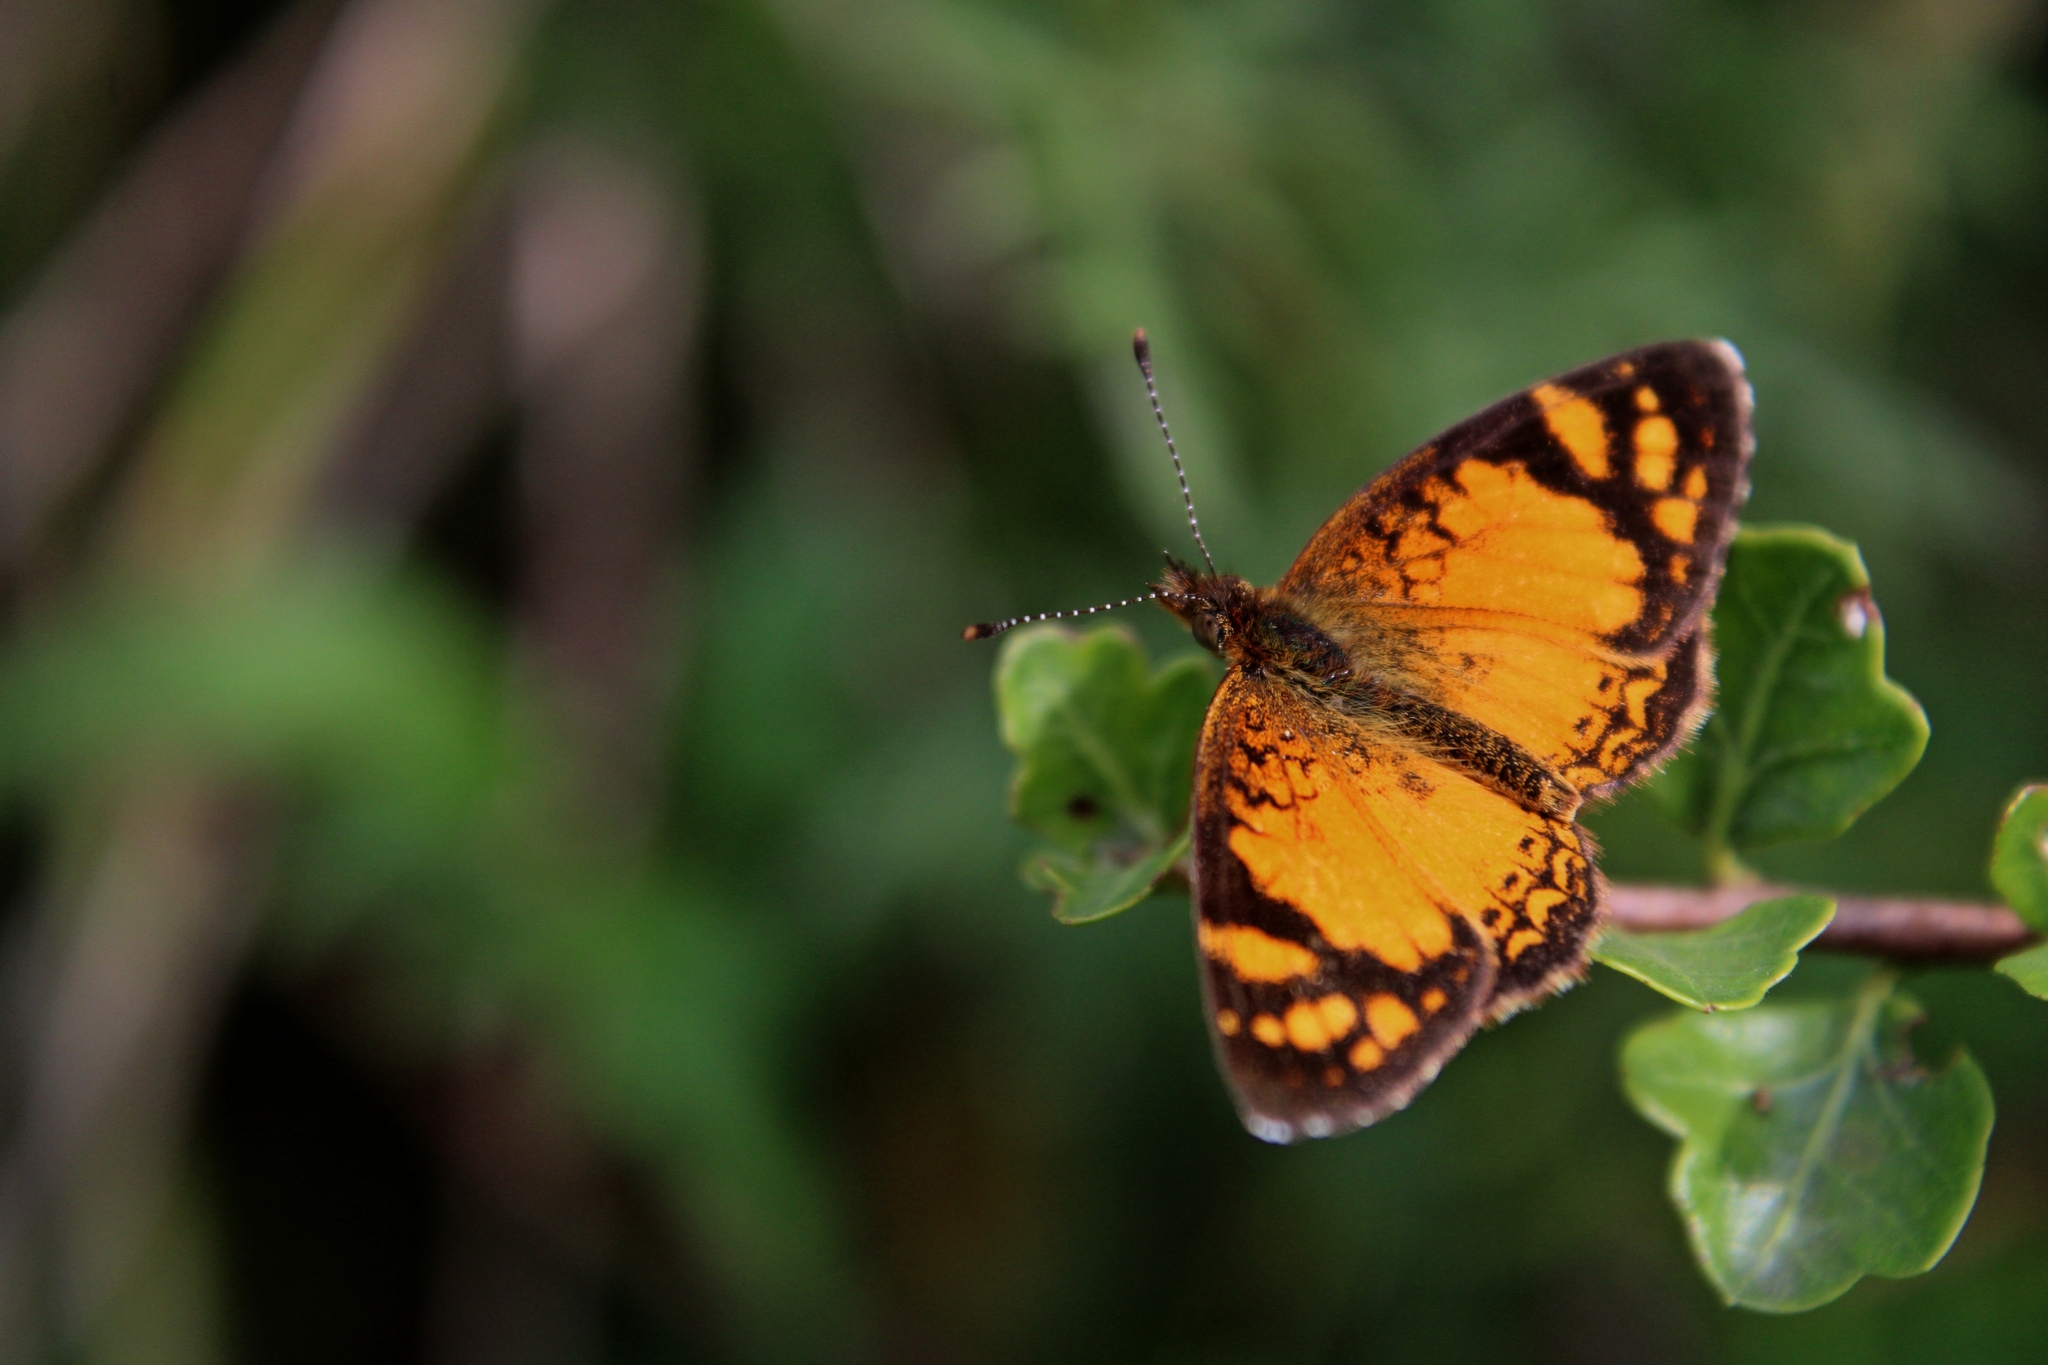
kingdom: Animalia
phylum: Arthropoda
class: Insecta
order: Lepidoptera
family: Nymphalidae
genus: Tegosa
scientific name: Tegosa orobia
